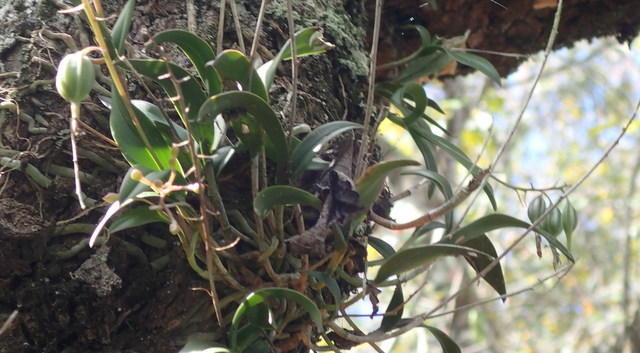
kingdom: Plantae
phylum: Tracheophyta
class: Liliopsida
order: Asparagales
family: Orchidaceae
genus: Epidendrum
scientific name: Epidendrum conopseum
